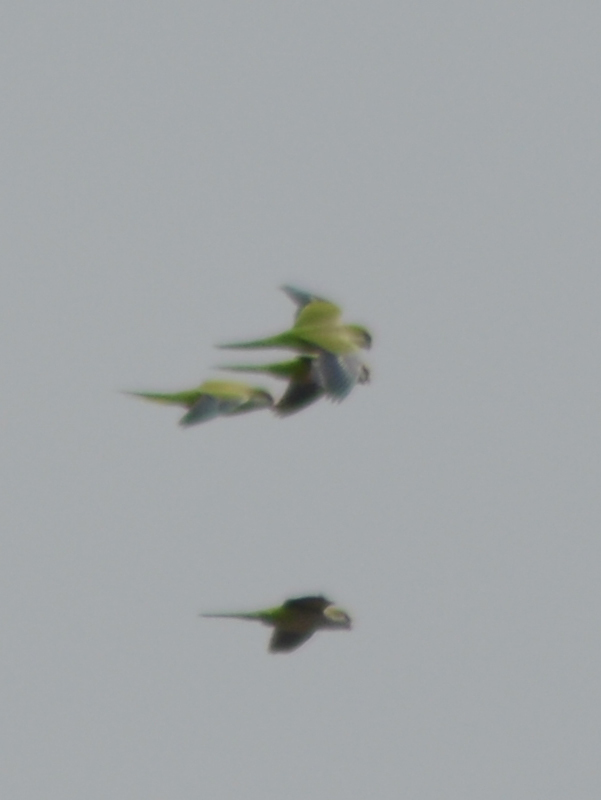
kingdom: Animalia
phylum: Chordata
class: Aves
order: Psittaciformes
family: Psittacidae
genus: Myiopsitta
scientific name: Myiopsitta monachus
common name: Monk parakeet
